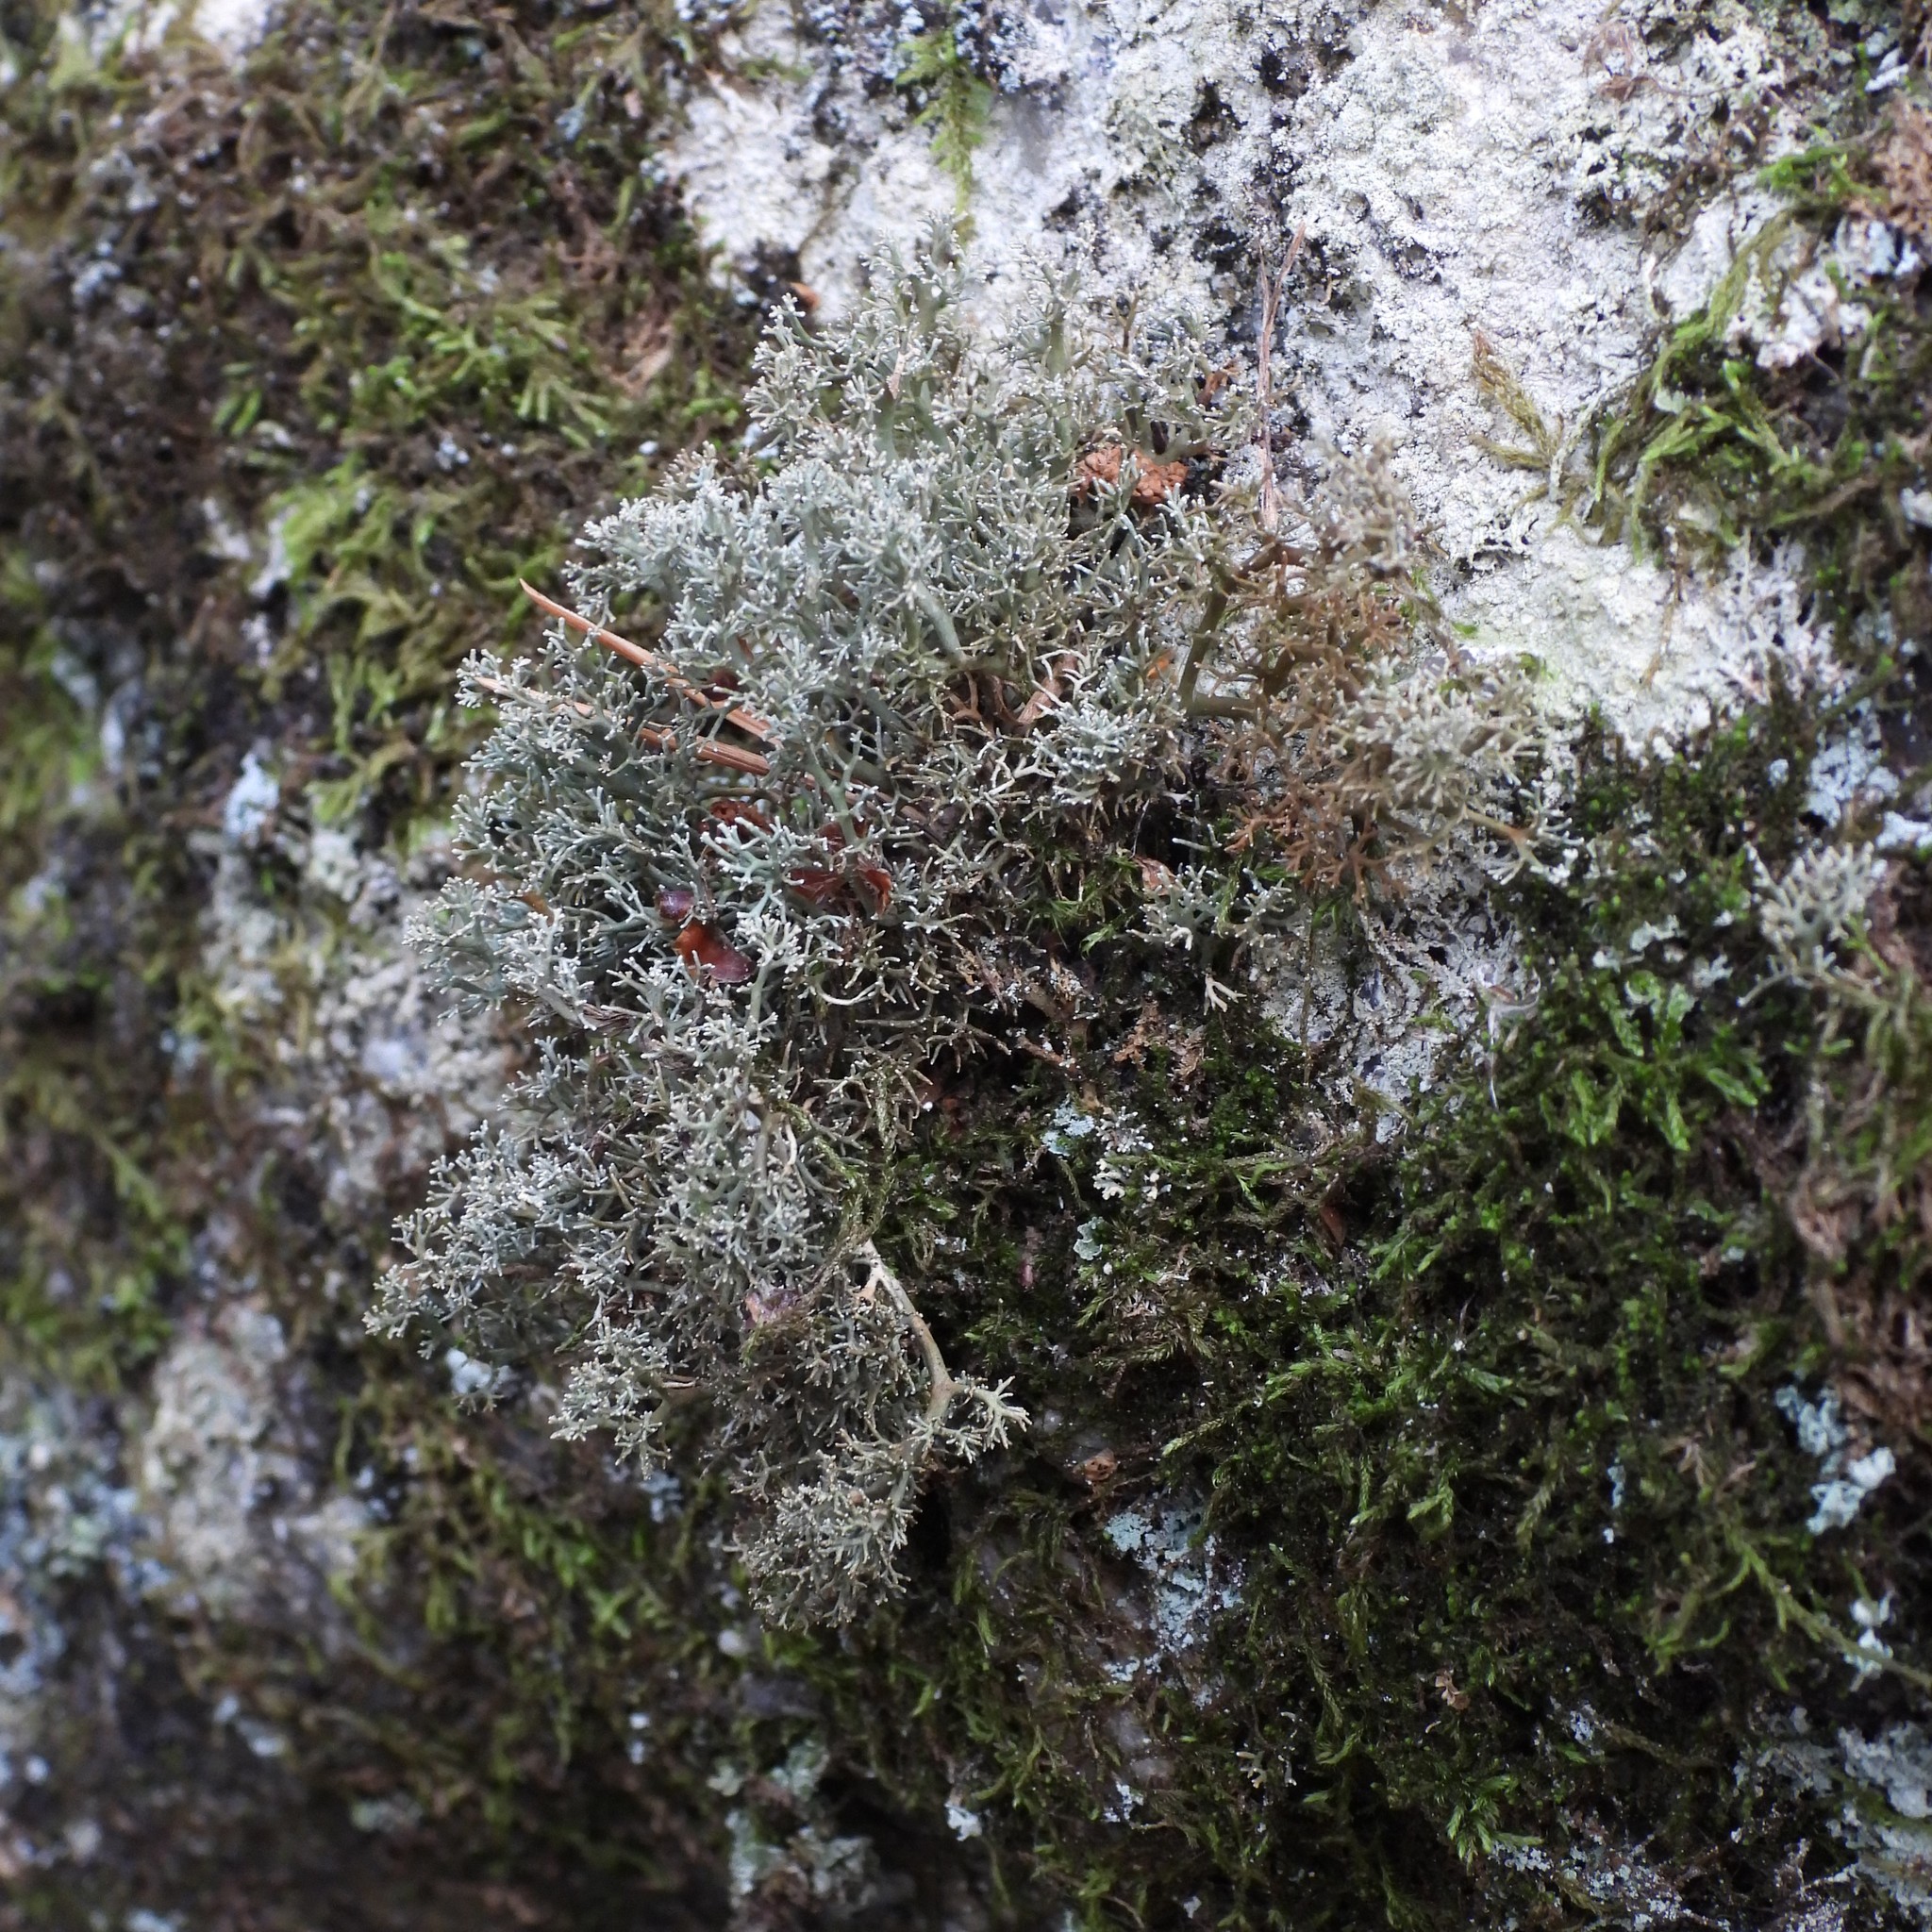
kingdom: Fungi
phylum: Ascomycota
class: Lecanoromycetes
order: Lecanorales
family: Sphaerophoraceae
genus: Sphaerophorus
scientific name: Sphaerophorus globosus
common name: Globe ball lichen
